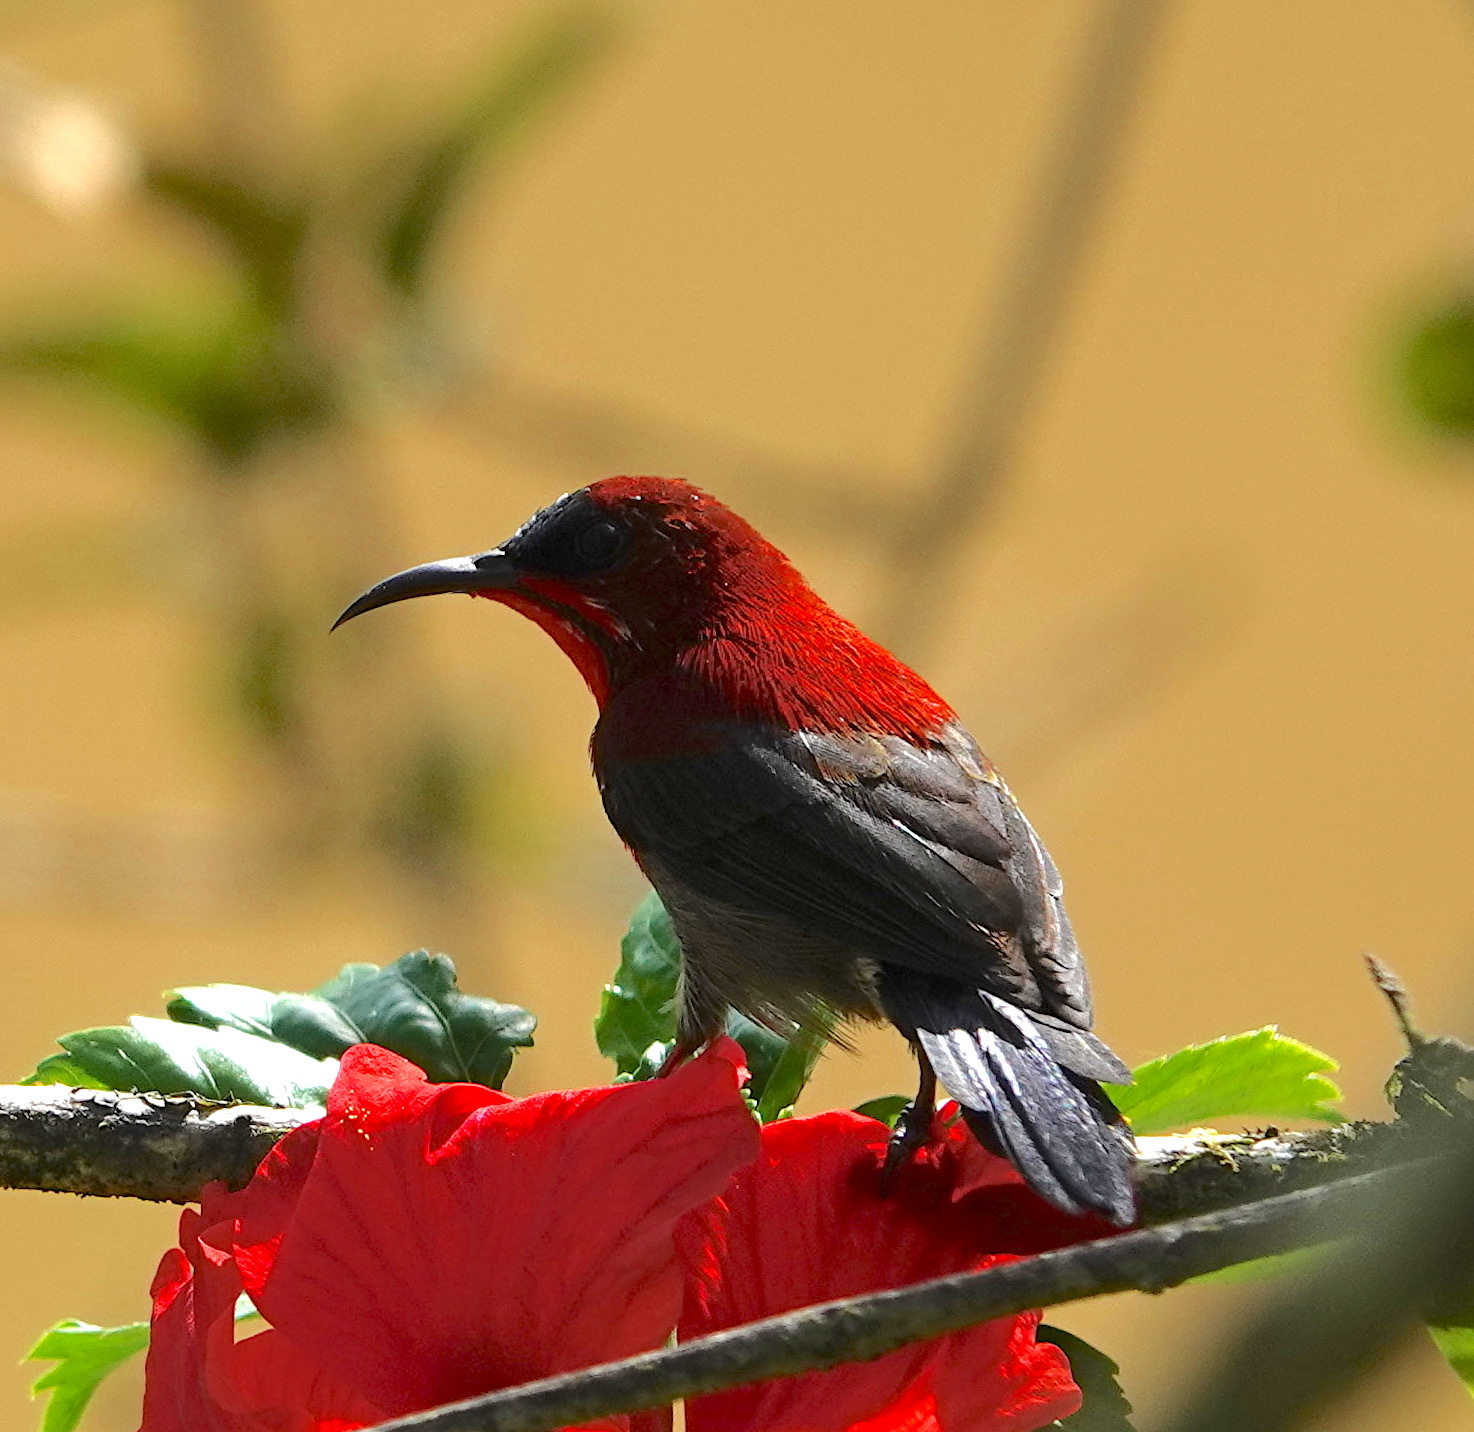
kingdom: Animalia
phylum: Chordata
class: Aves
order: Passeriformes
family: Nectariniidae
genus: Aethopyga
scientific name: Aethopyga siparaja
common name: Crimson sunbird
